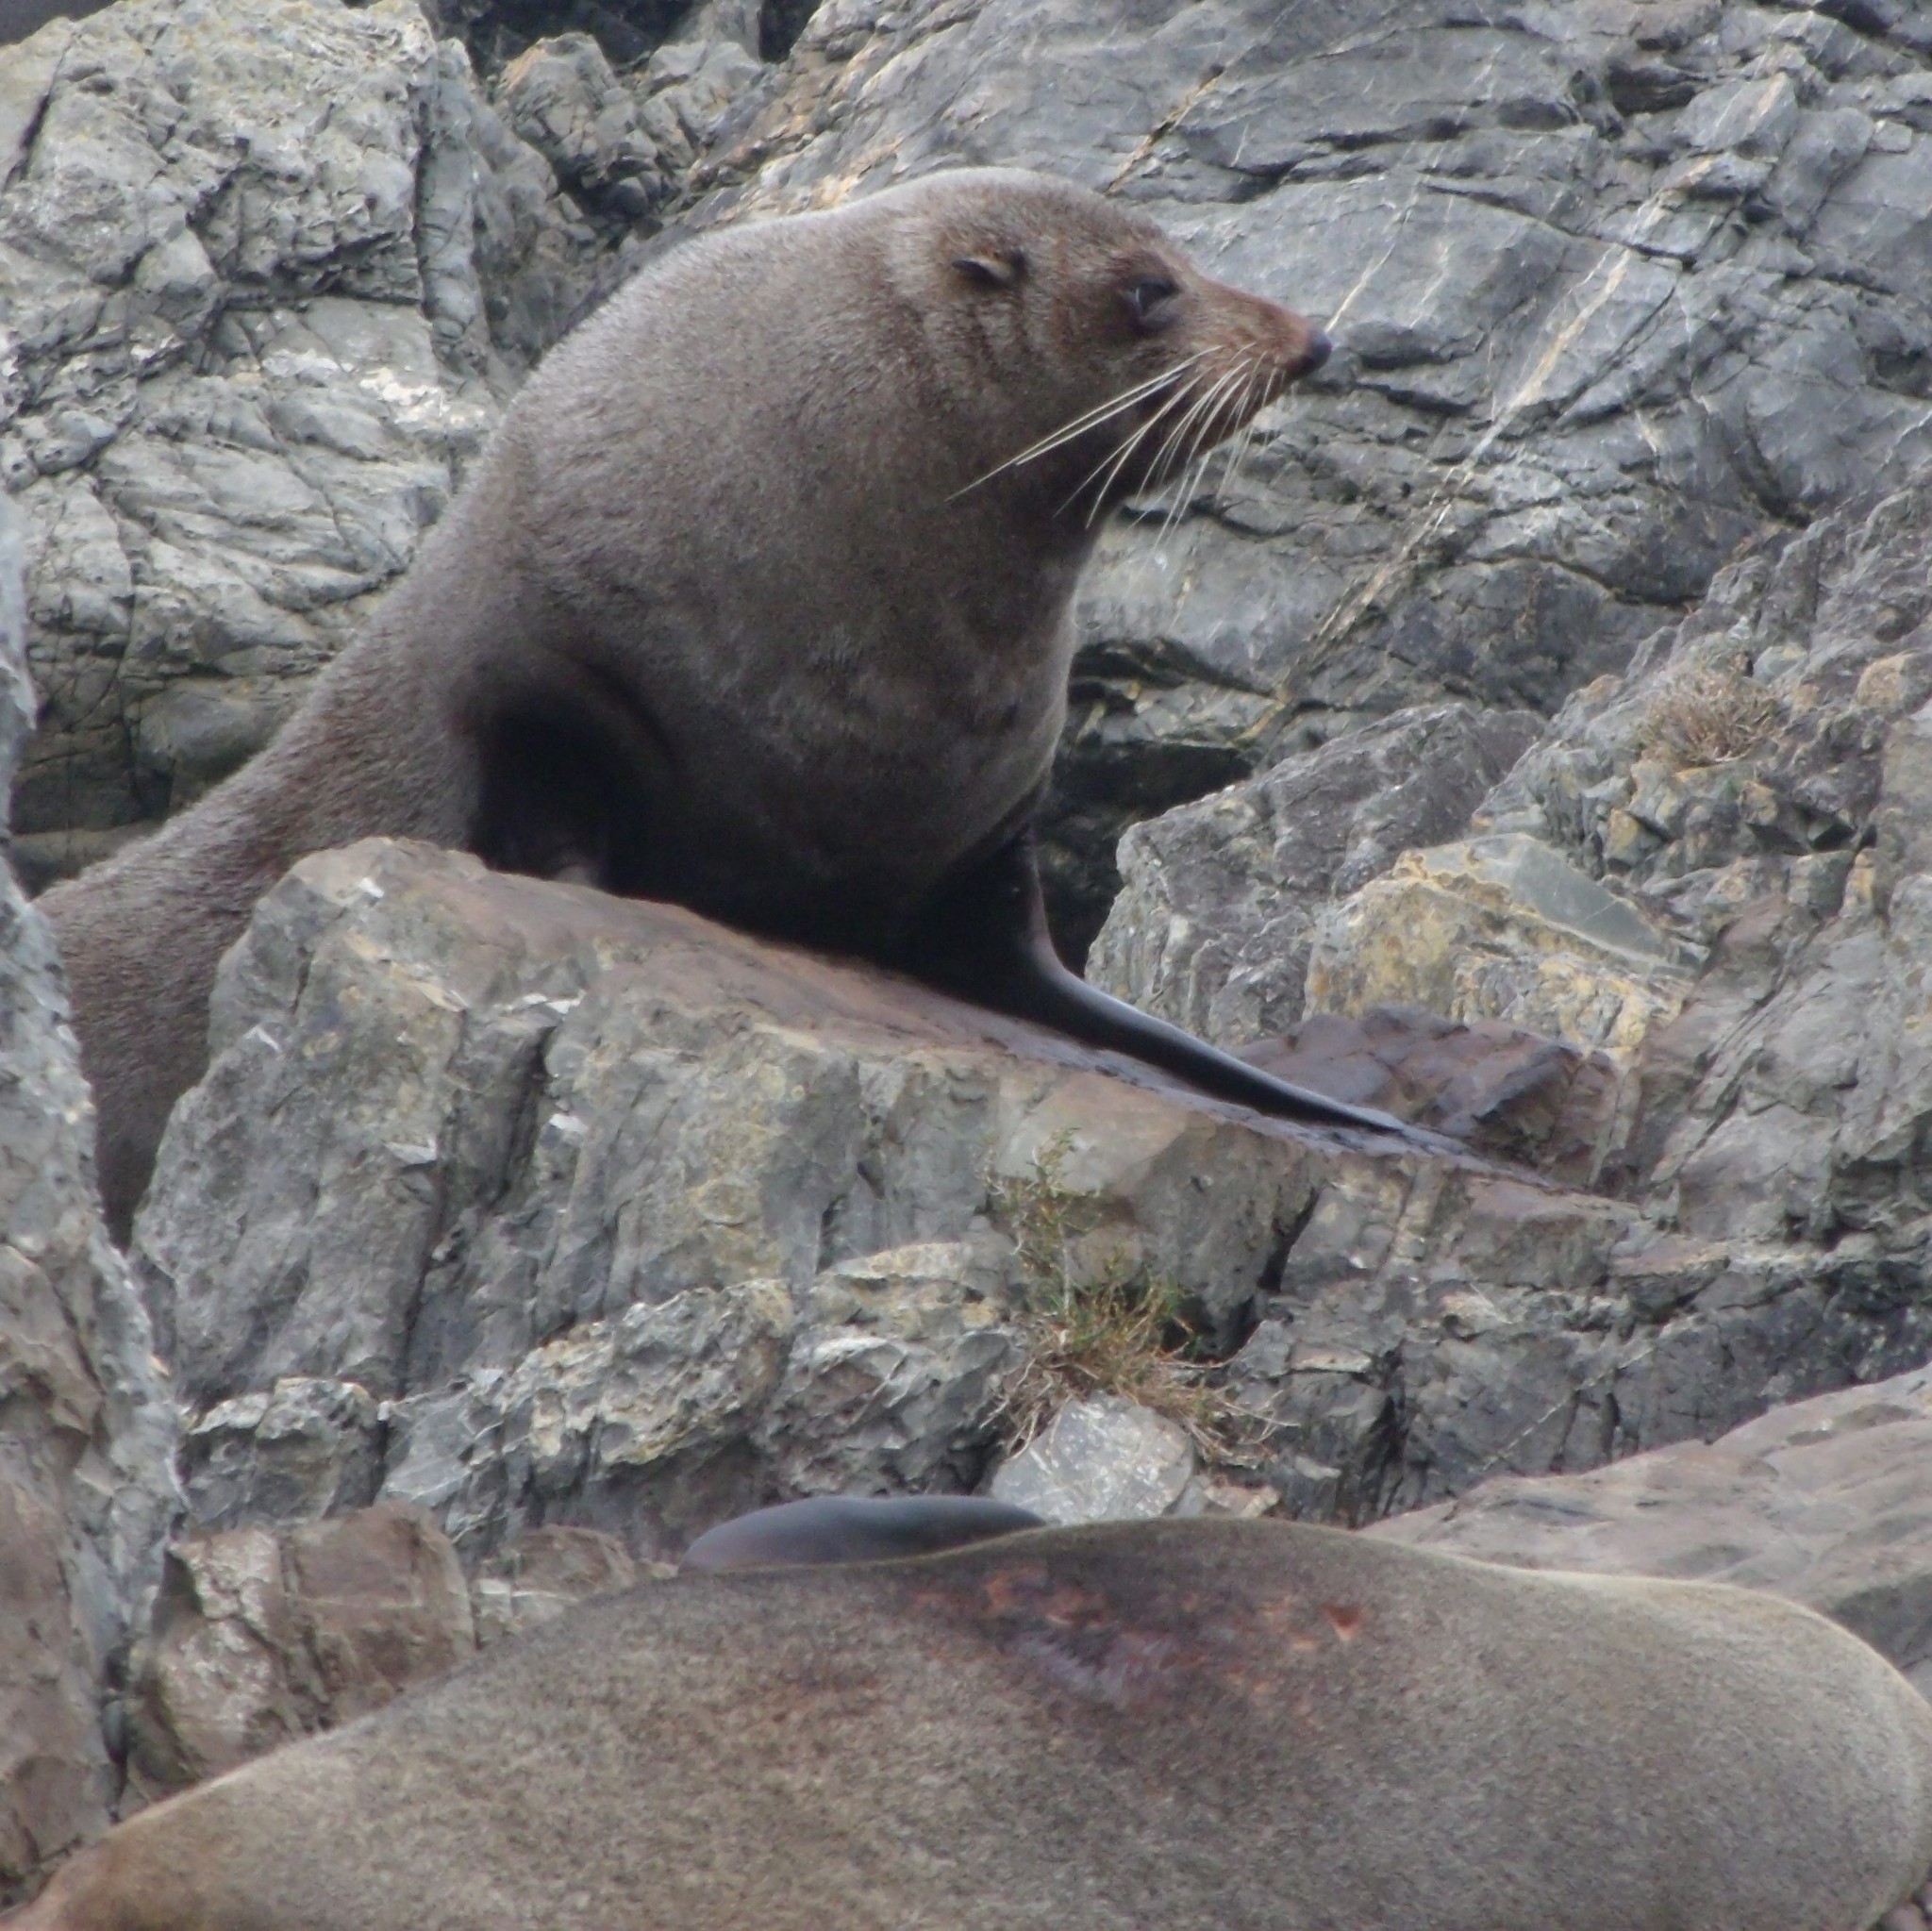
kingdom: Animalia
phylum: Chordata
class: Mammalia
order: Carnivora
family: Otariidae
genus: Arctocephalus
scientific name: Arctocephalus forsteri
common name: New zealand fur seal
